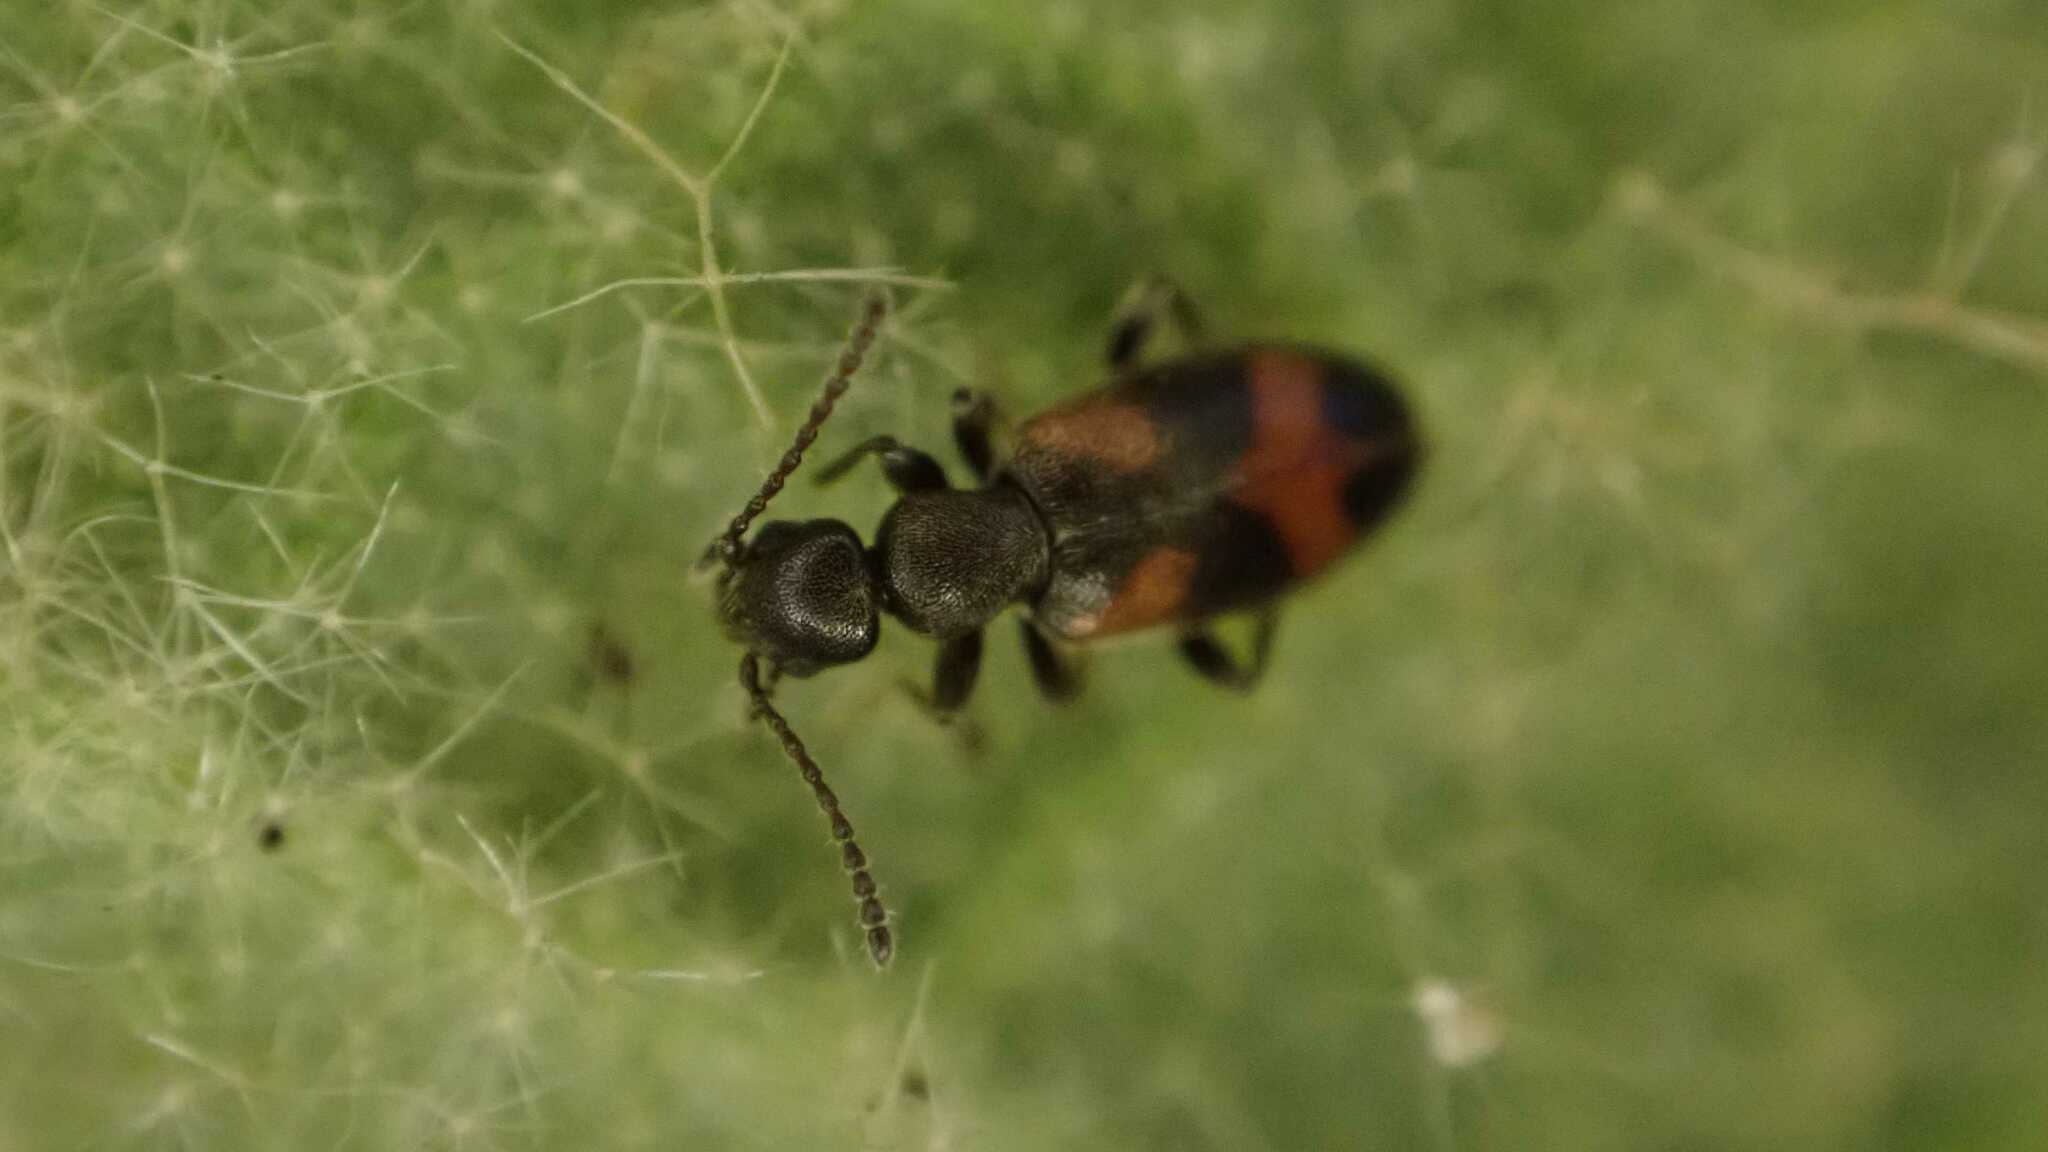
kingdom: Animalia
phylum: Arthropoda
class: Insecta
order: Coleoptera
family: Anthicidae
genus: Anthicus
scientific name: Anthicus antherinus
